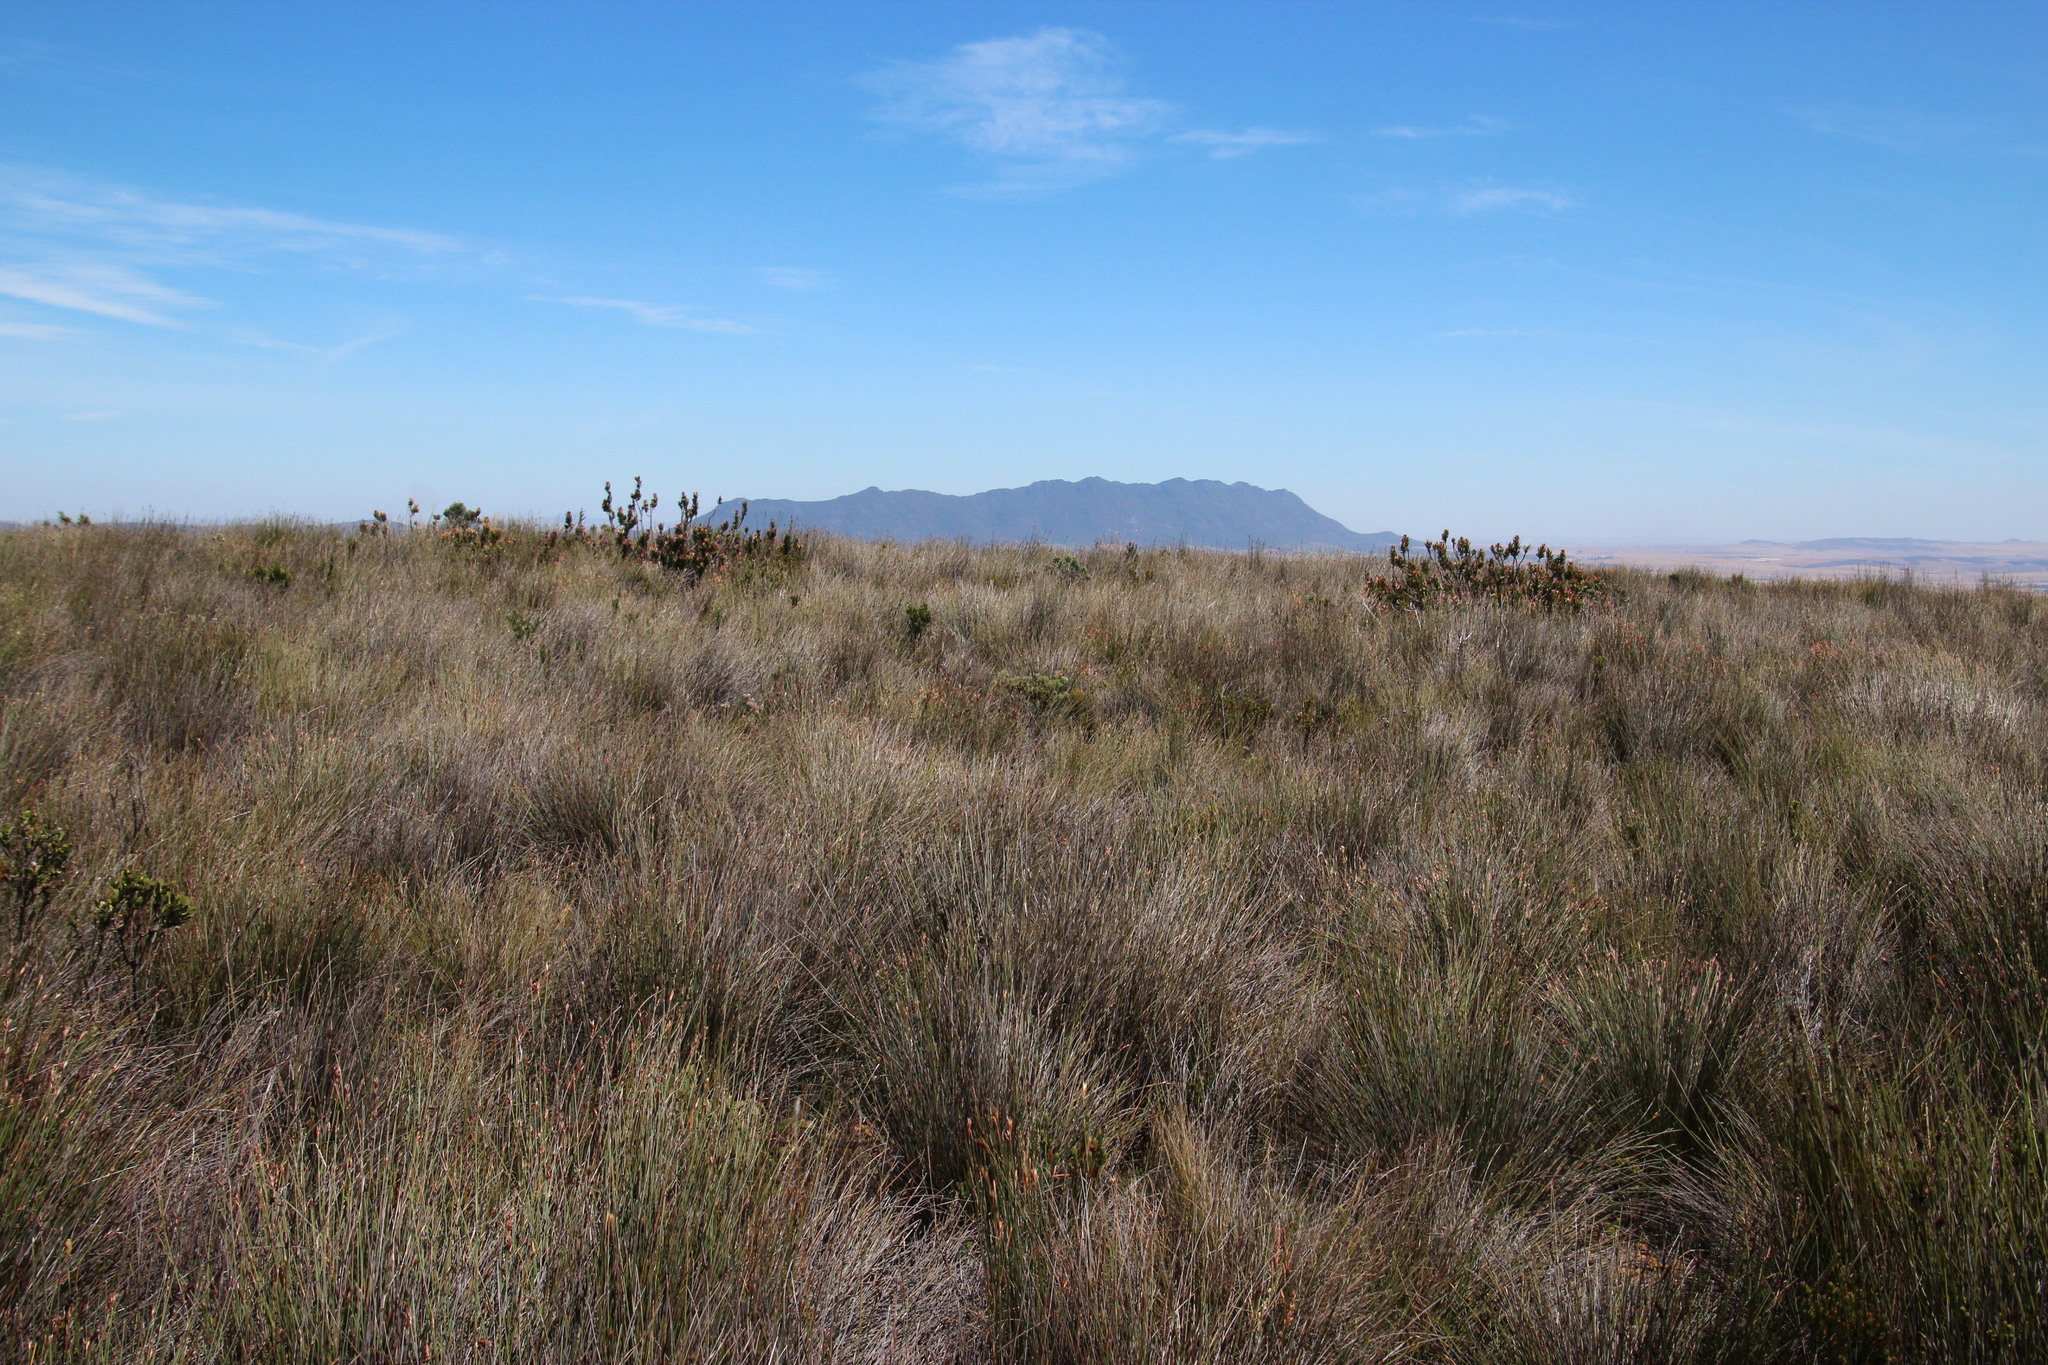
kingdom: Plantae
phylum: Tracheophyta
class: Magnoliopsida
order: Proteales
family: Proteaceae
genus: Mimetes
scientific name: Mimetes cucullatus
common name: Common pagoda
